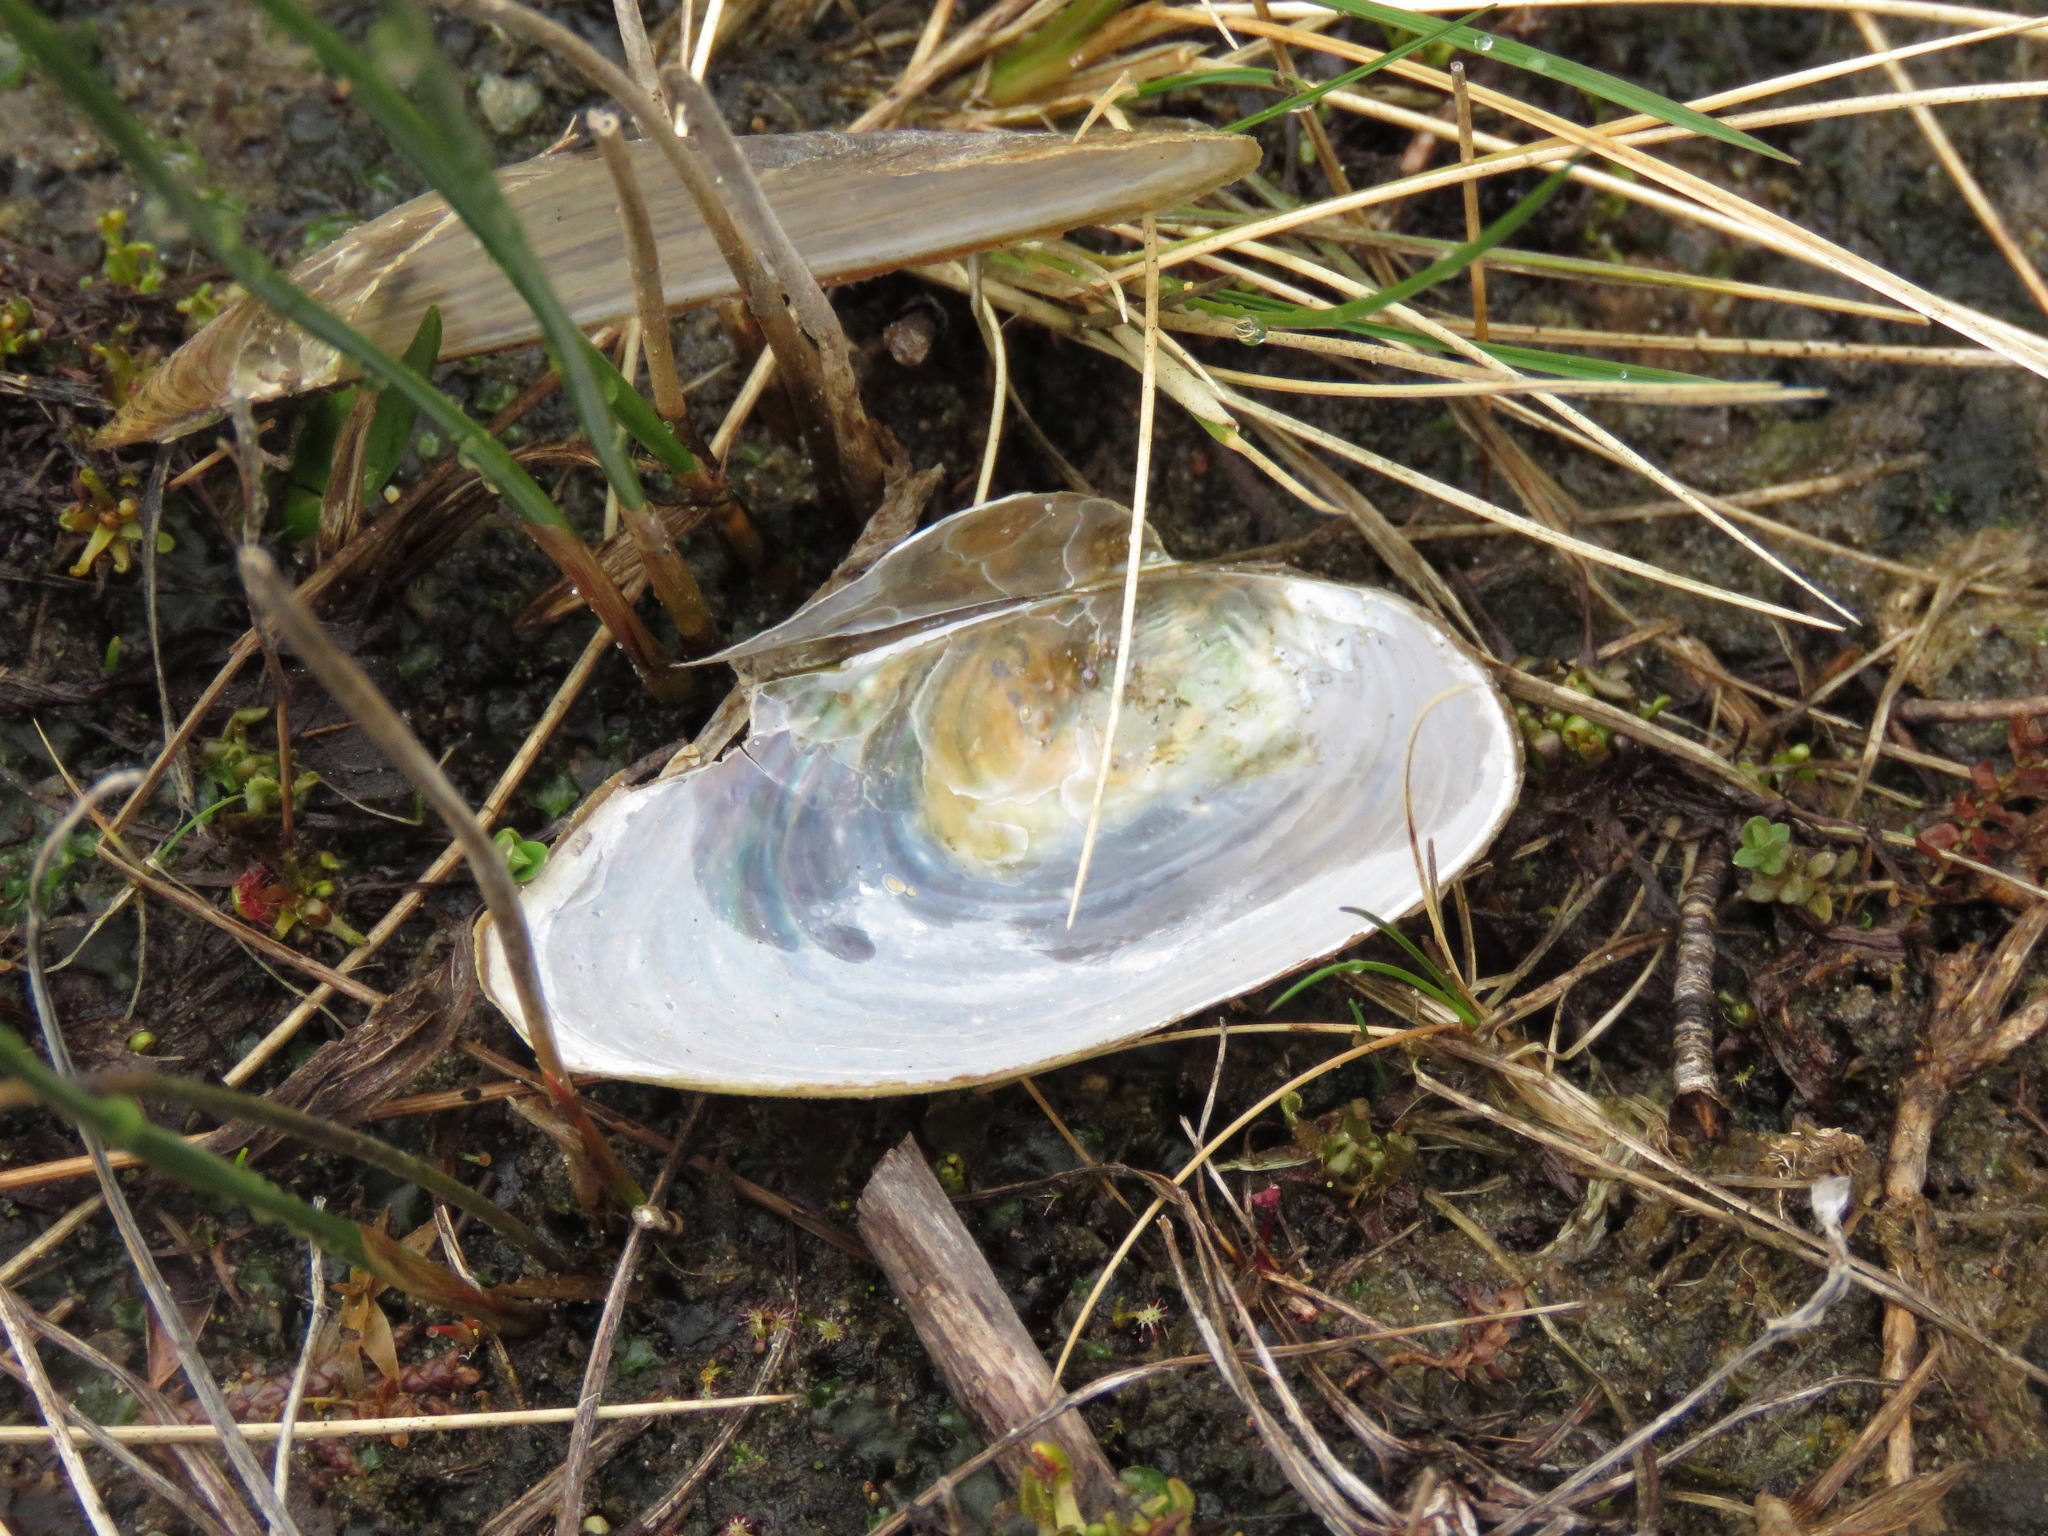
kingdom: Animalia
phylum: Mollusca
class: Bivalvia
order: Unionida
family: Unionidae
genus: Anodonta
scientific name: Anodonta kennerlyi
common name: Western floater
